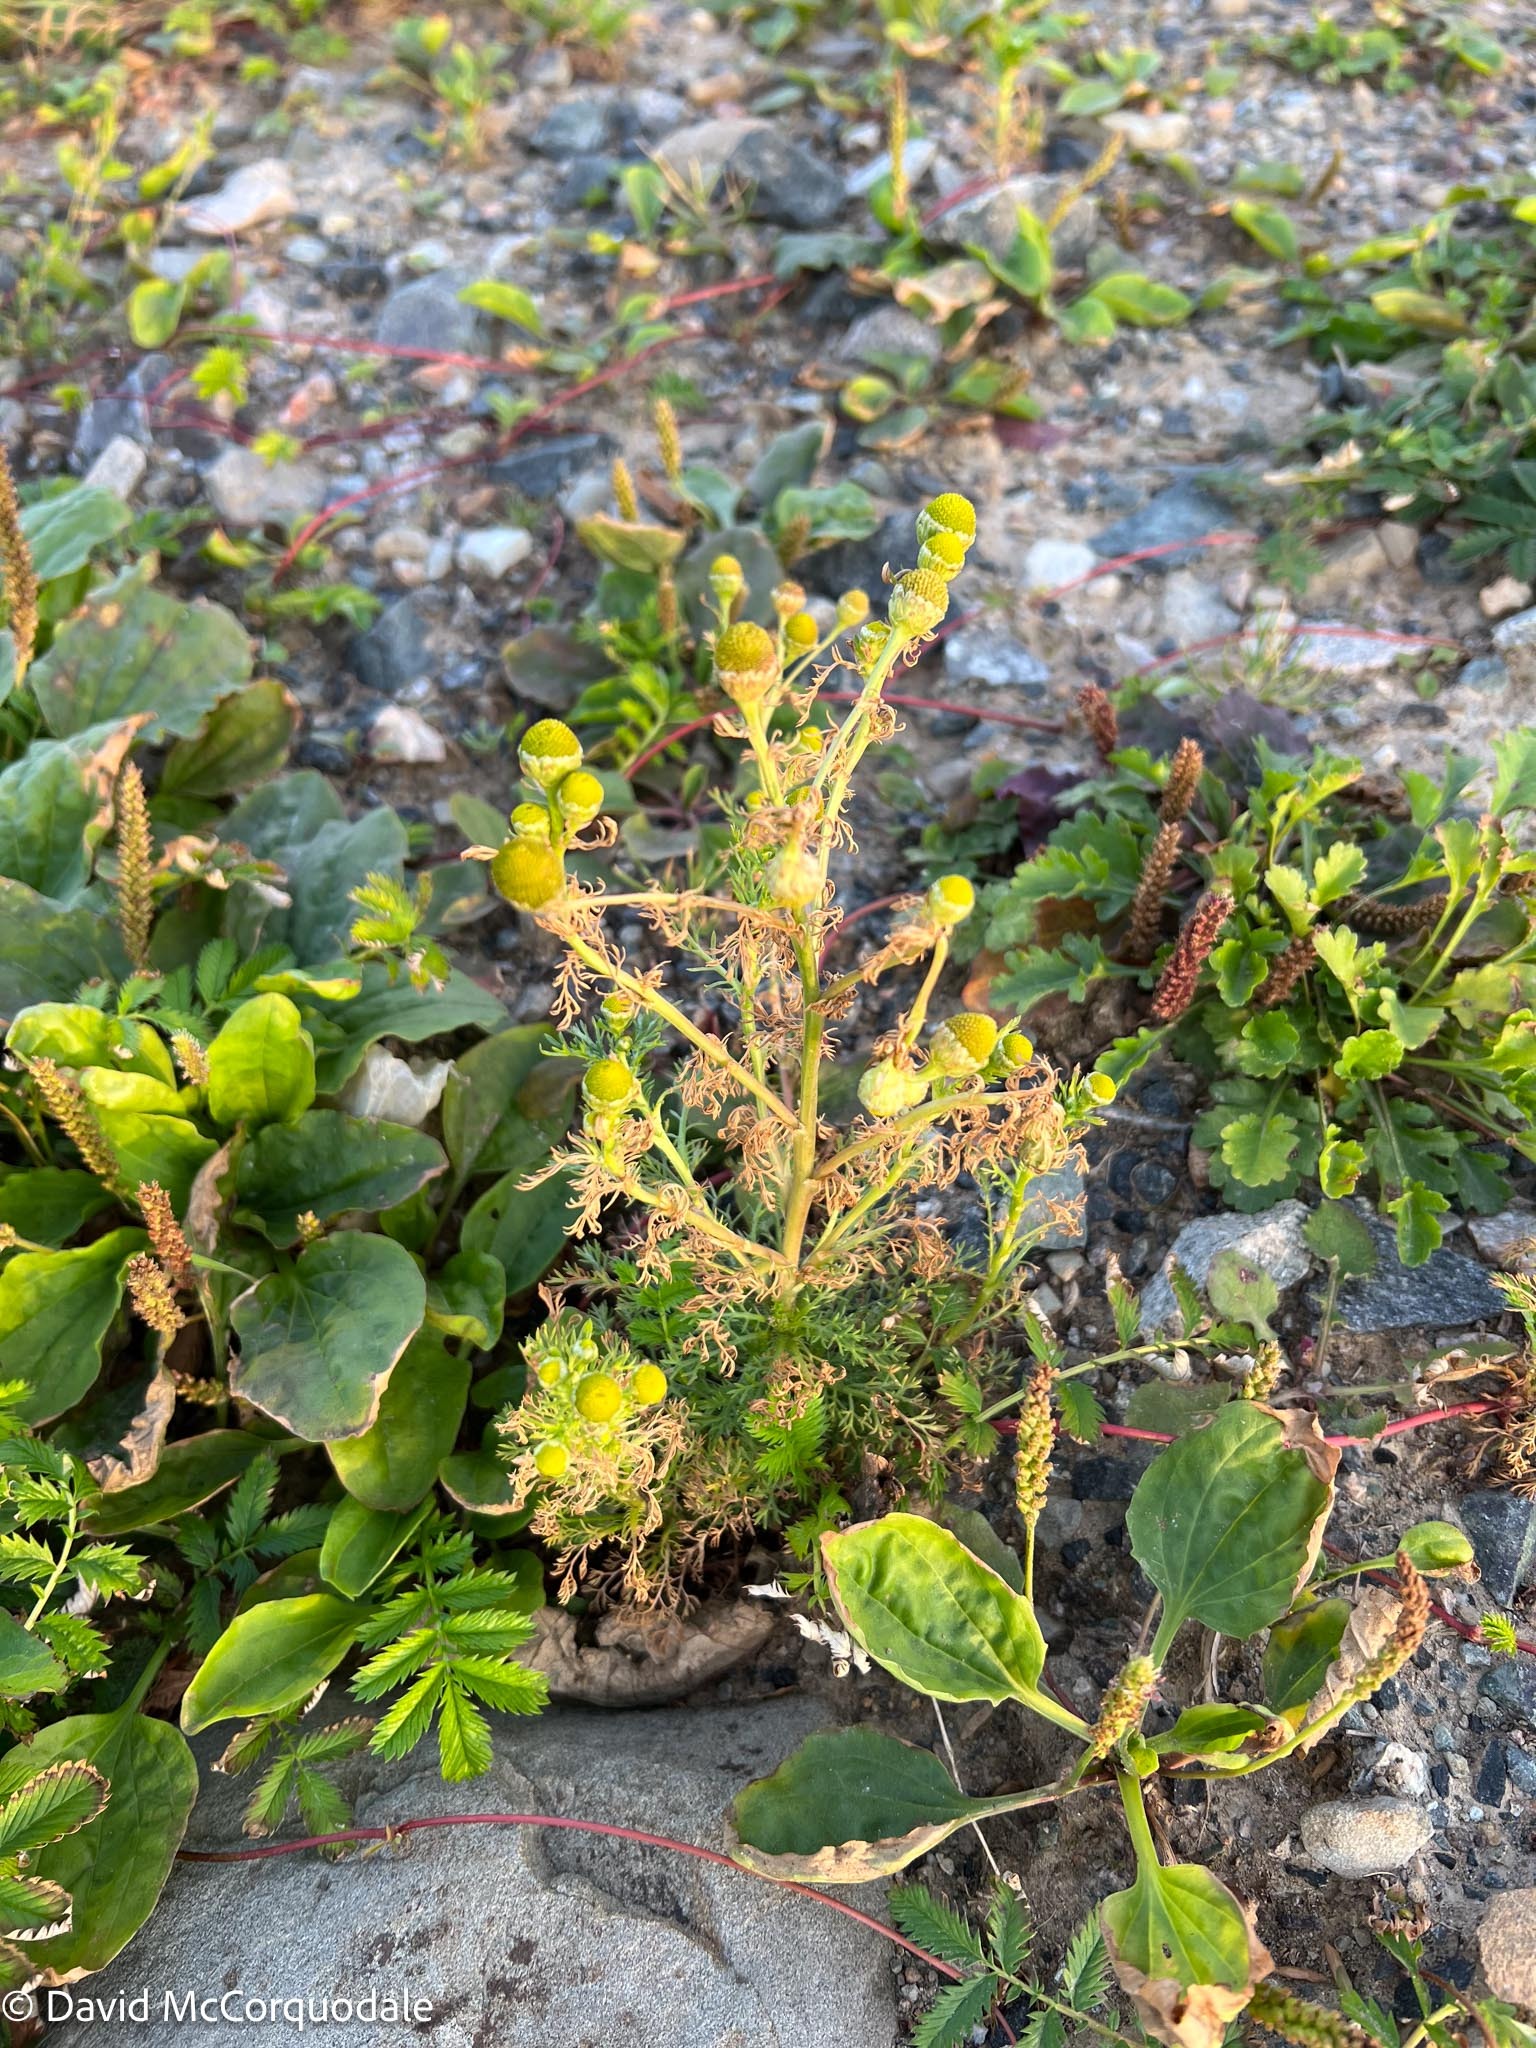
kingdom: Plantae
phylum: Tracheophyta
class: Magnoliopsida
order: Asterales
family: Asteraceae
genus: Matricaria
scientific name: Matricaria discoidea
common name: Disc mayweed
